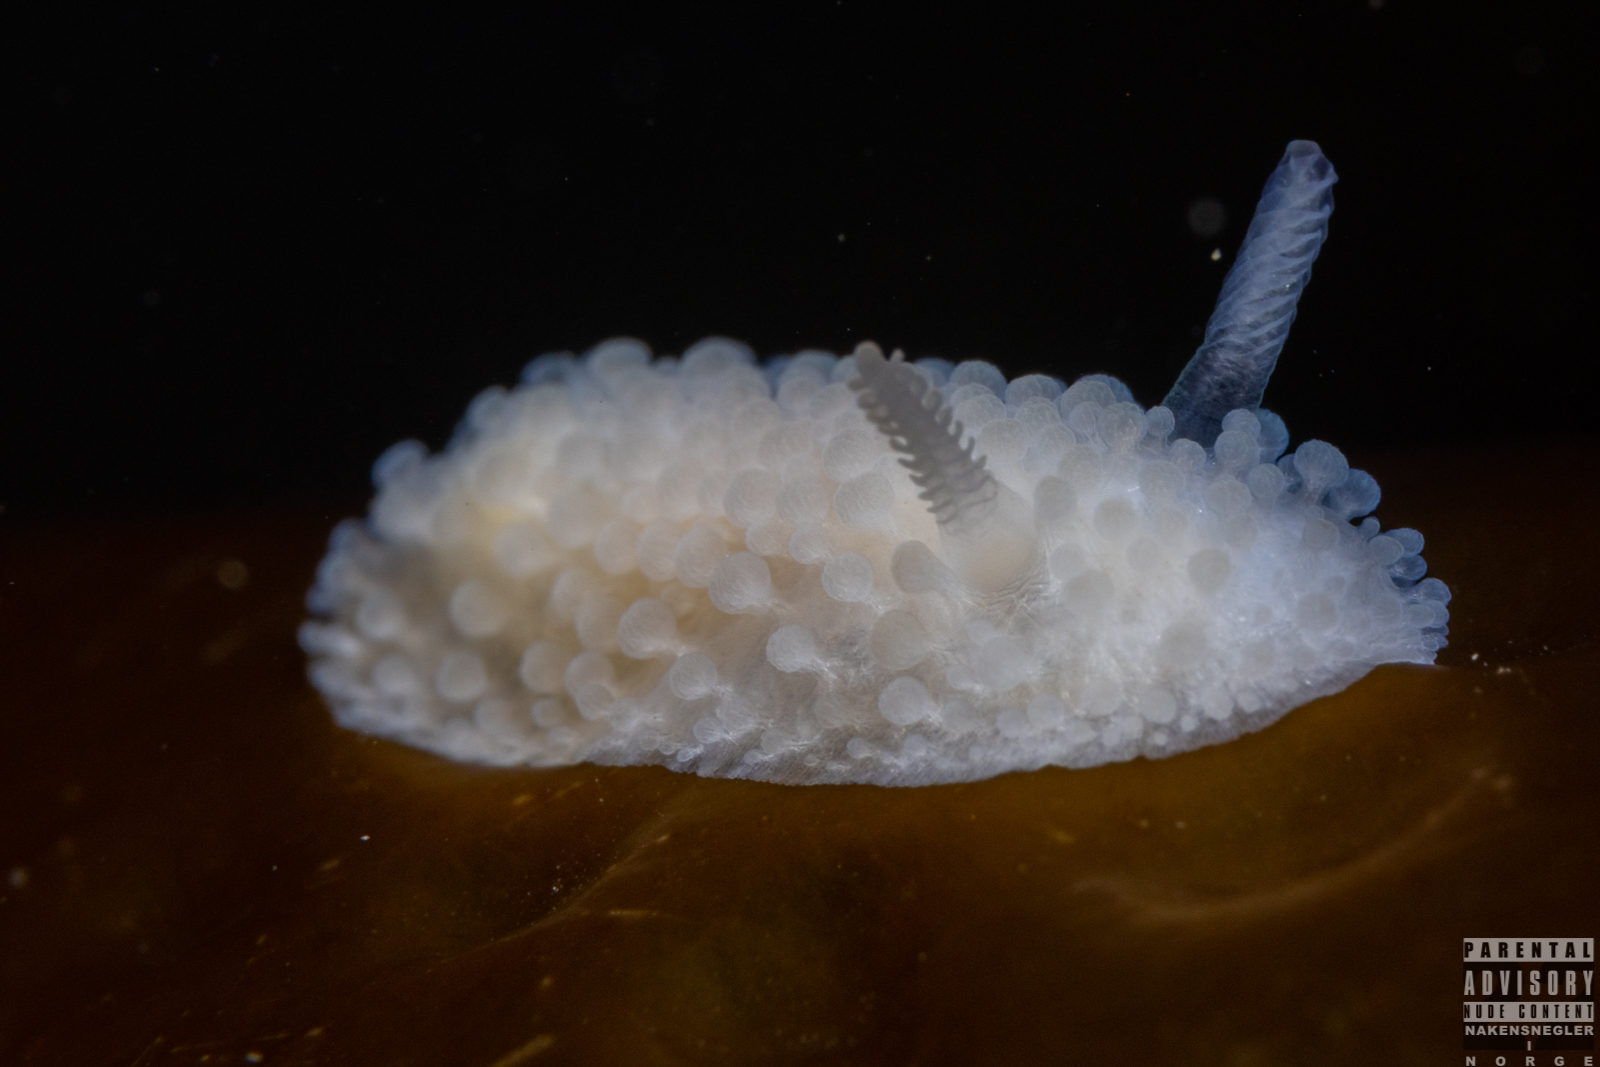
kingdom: Animalia
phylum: Mollusca
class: Gastropoda
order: Nudibranchia
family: Onchidorididae
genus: Onchidoris
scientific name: Onchidoris muricata
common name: Rough doris
